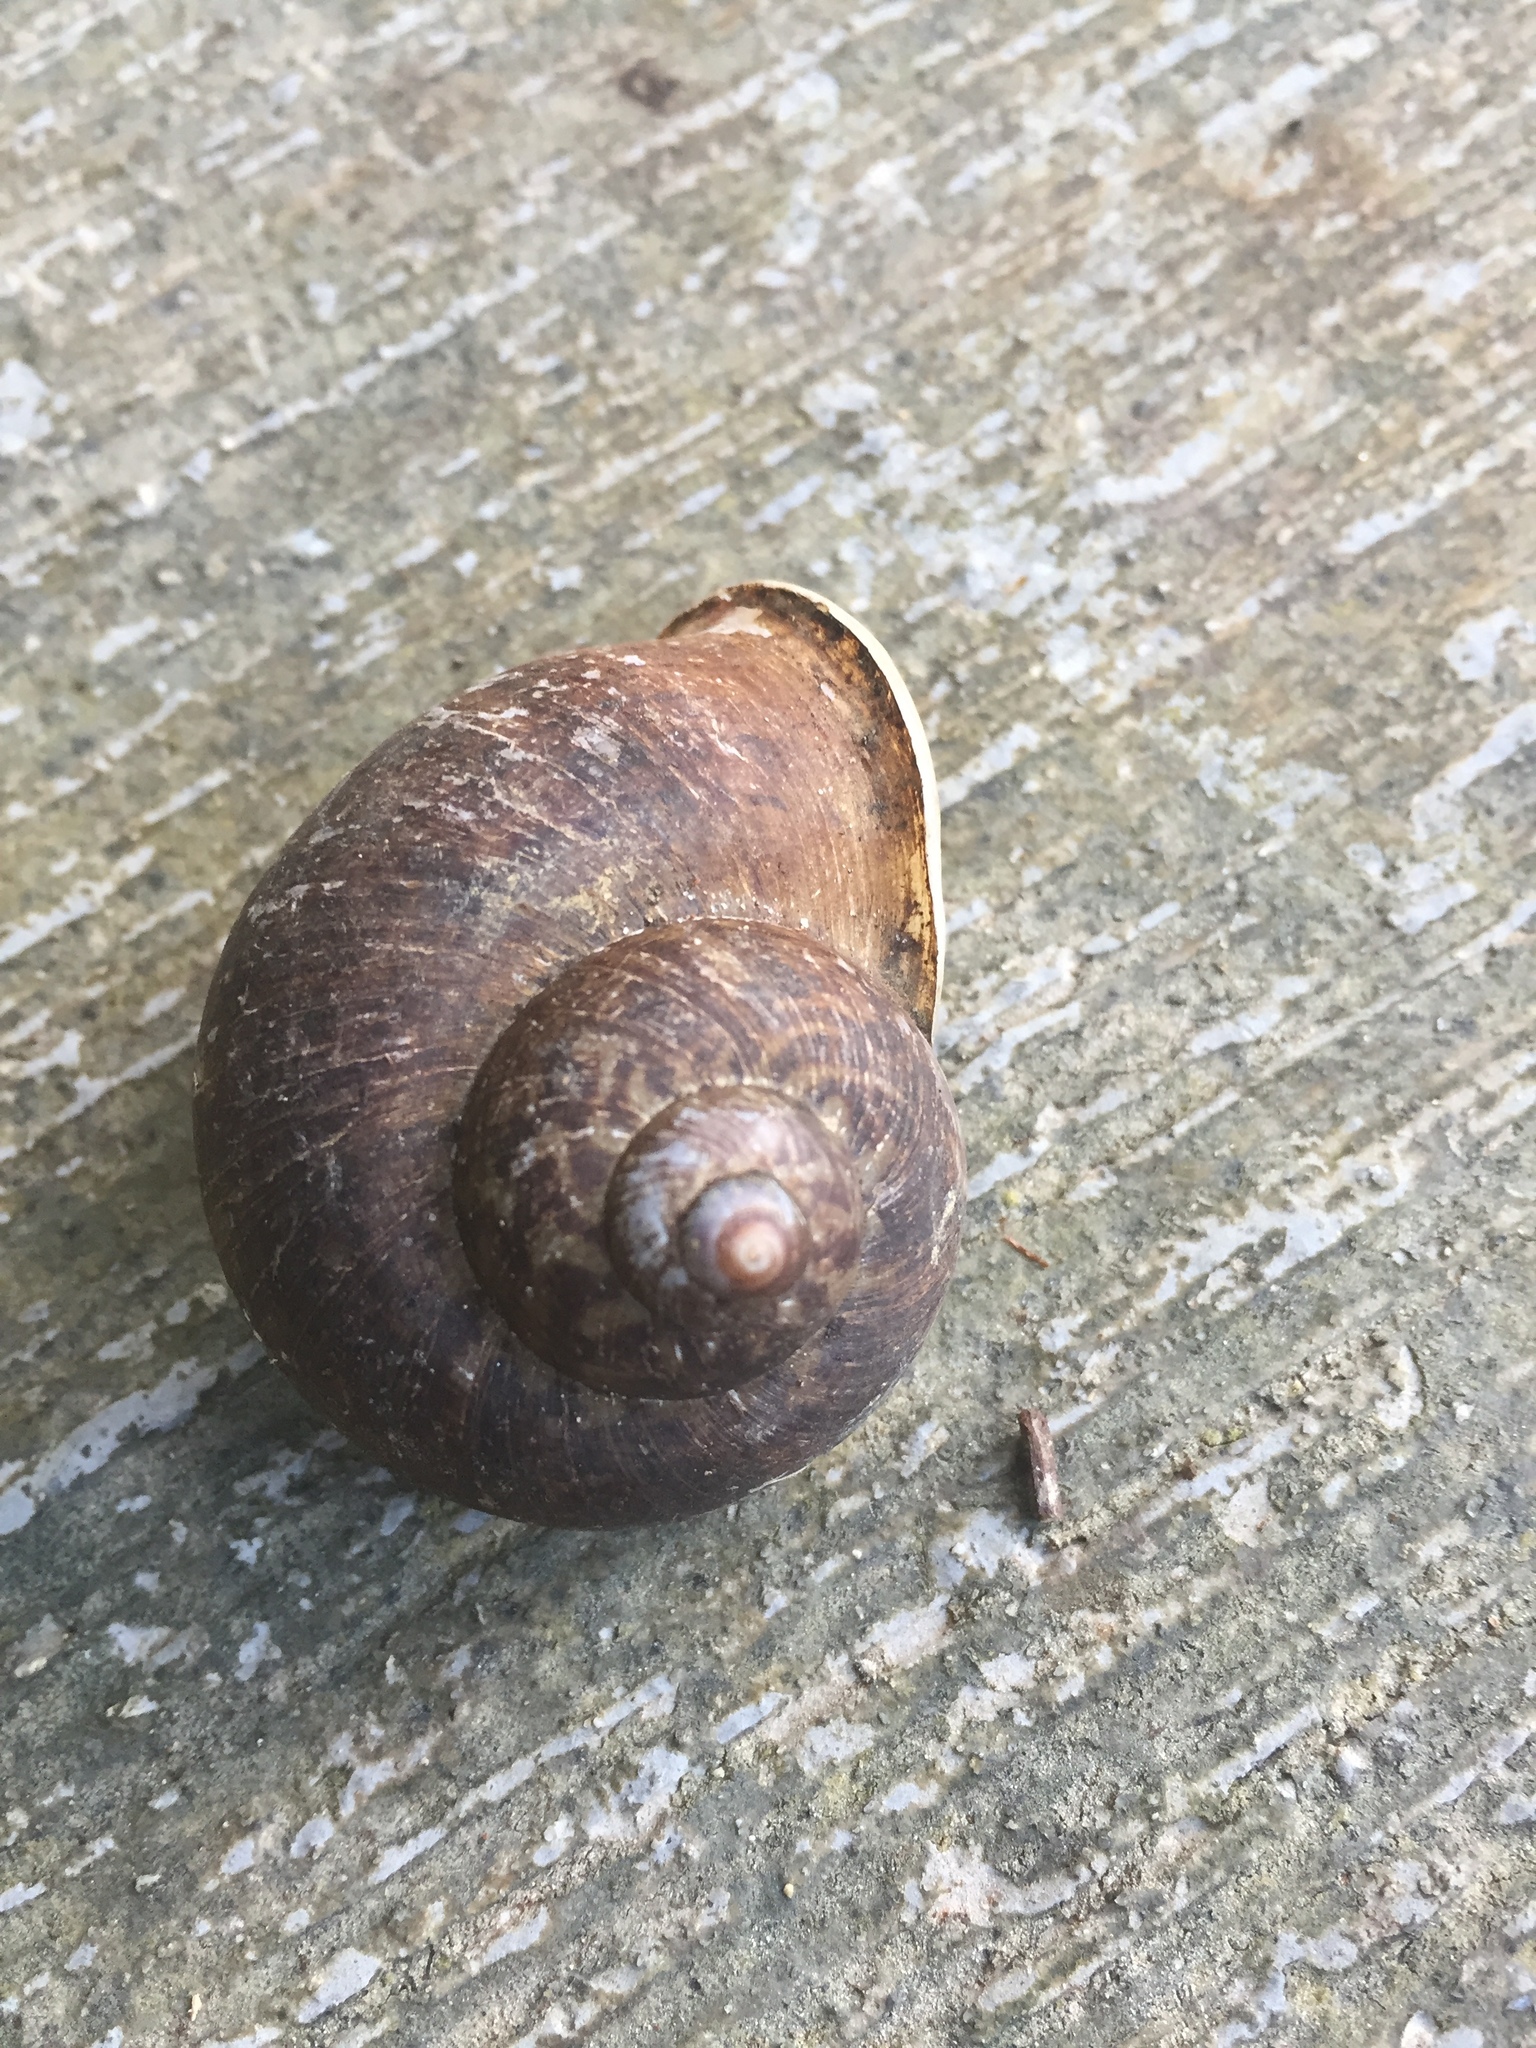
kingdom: Animalia
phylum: Mollusca
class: Gastropoda
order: Architaenioglossa
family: Cyclophoridae
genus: Cyclophorus
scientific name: Cyclophorus malayanus
